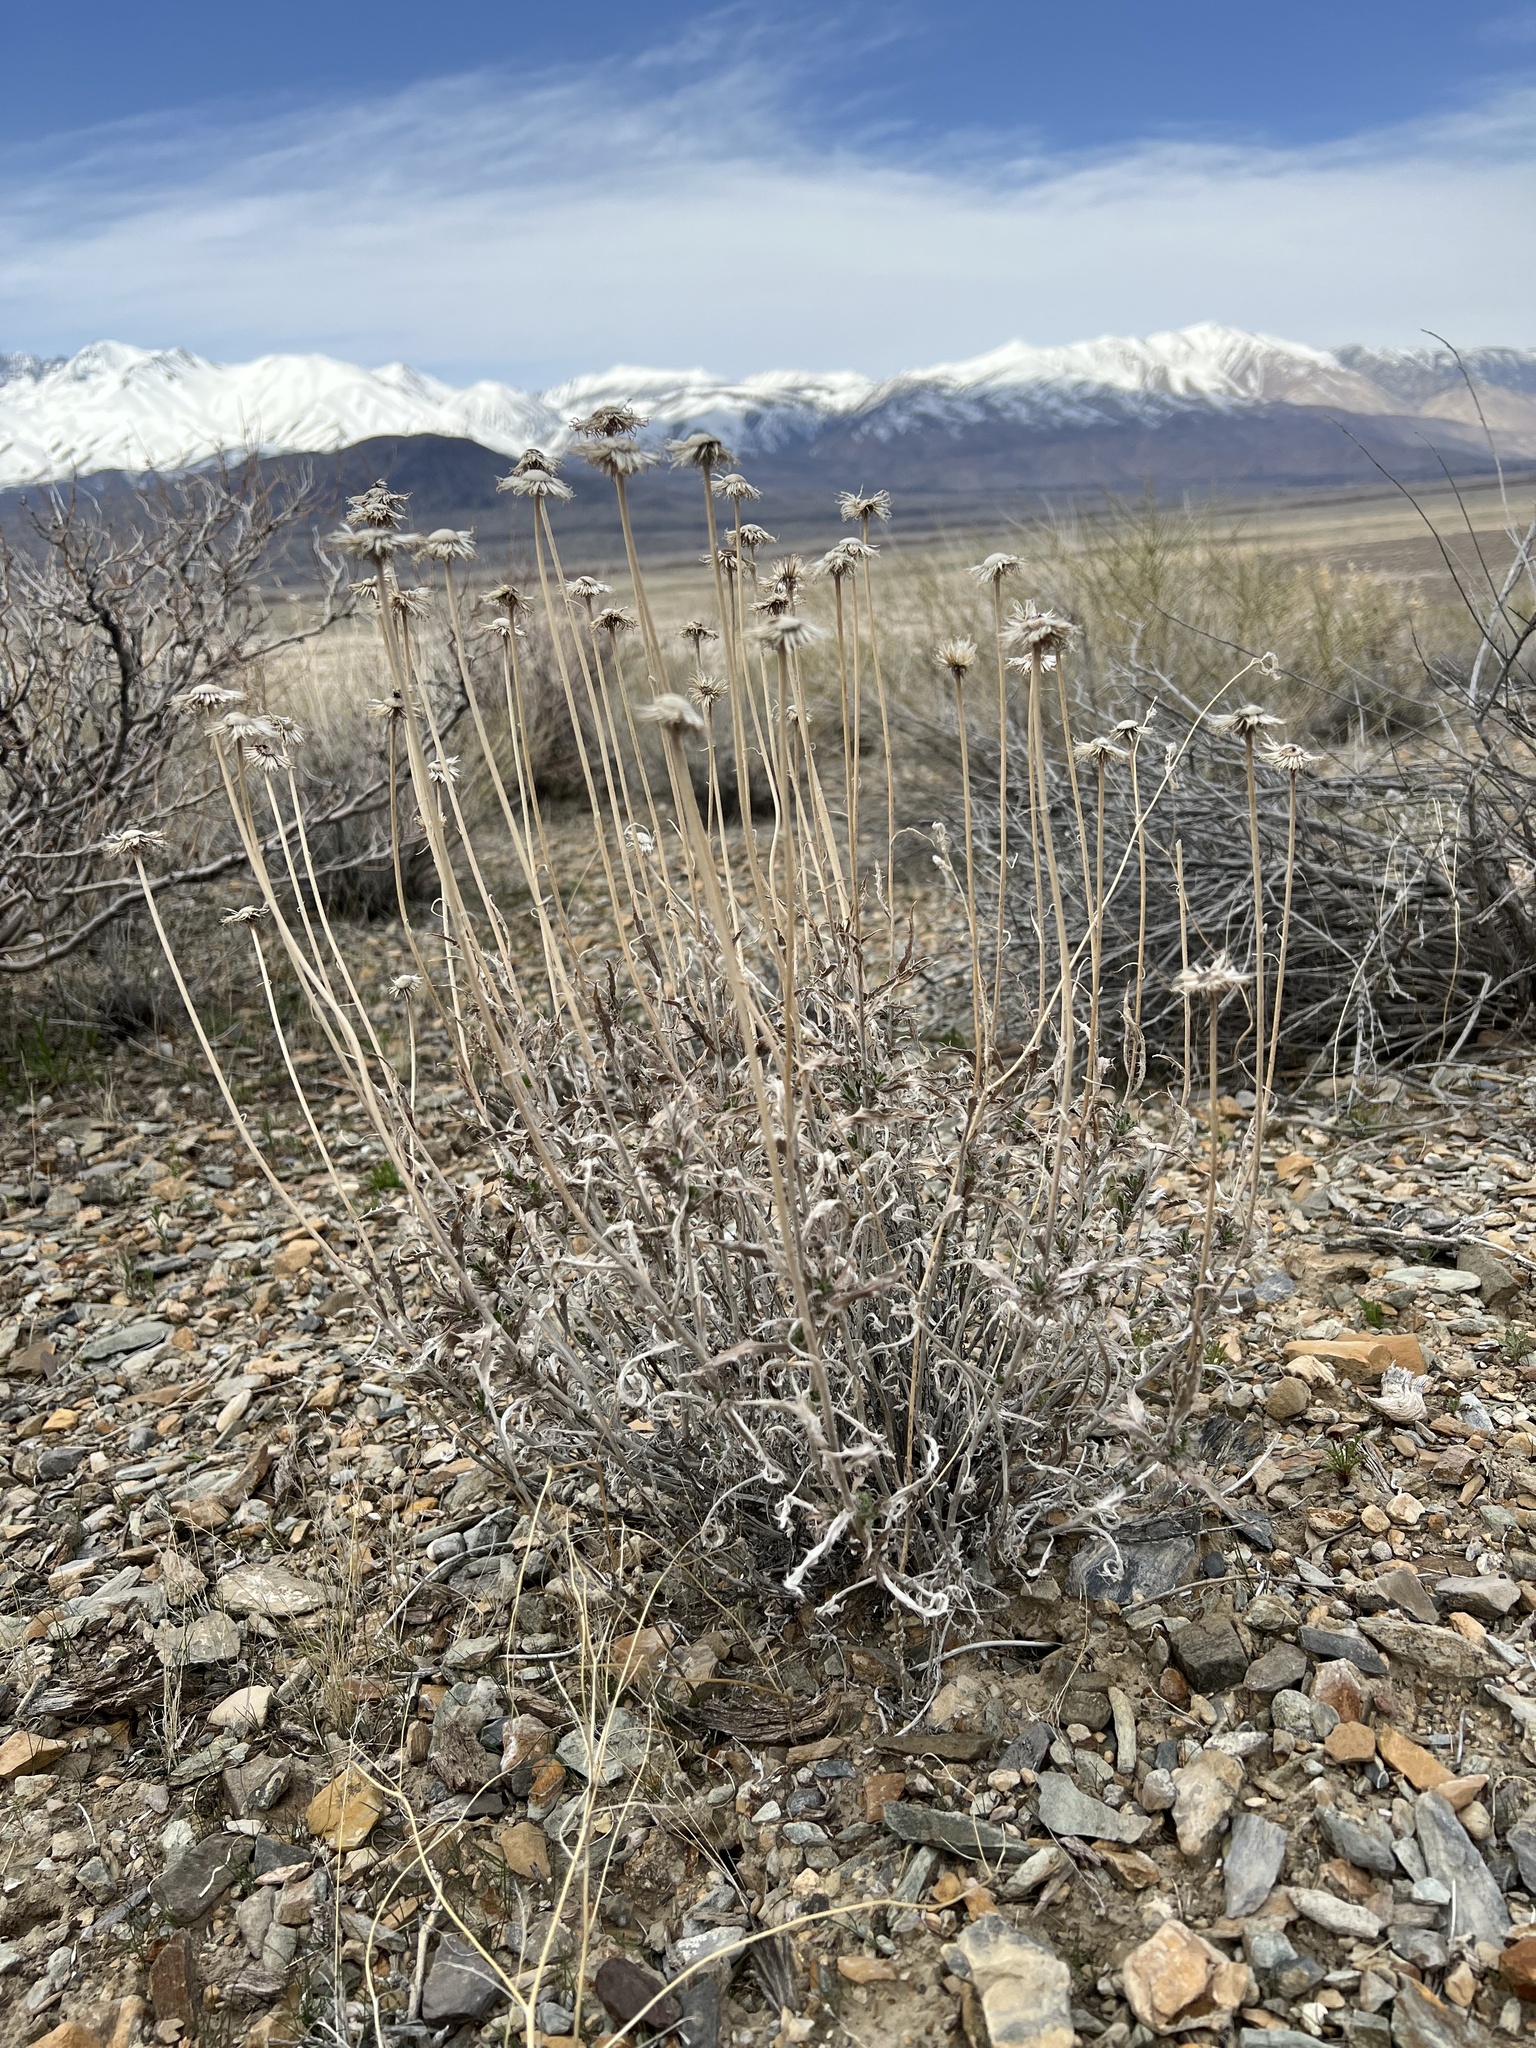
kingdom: Plantae
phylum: Tracheophyta
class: Magnoliopsida
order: Asterales
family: Asteraceae
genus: Xylorhiza
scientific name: Xylorhiza tortifolia
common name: Hurt-leaf woody-aster
